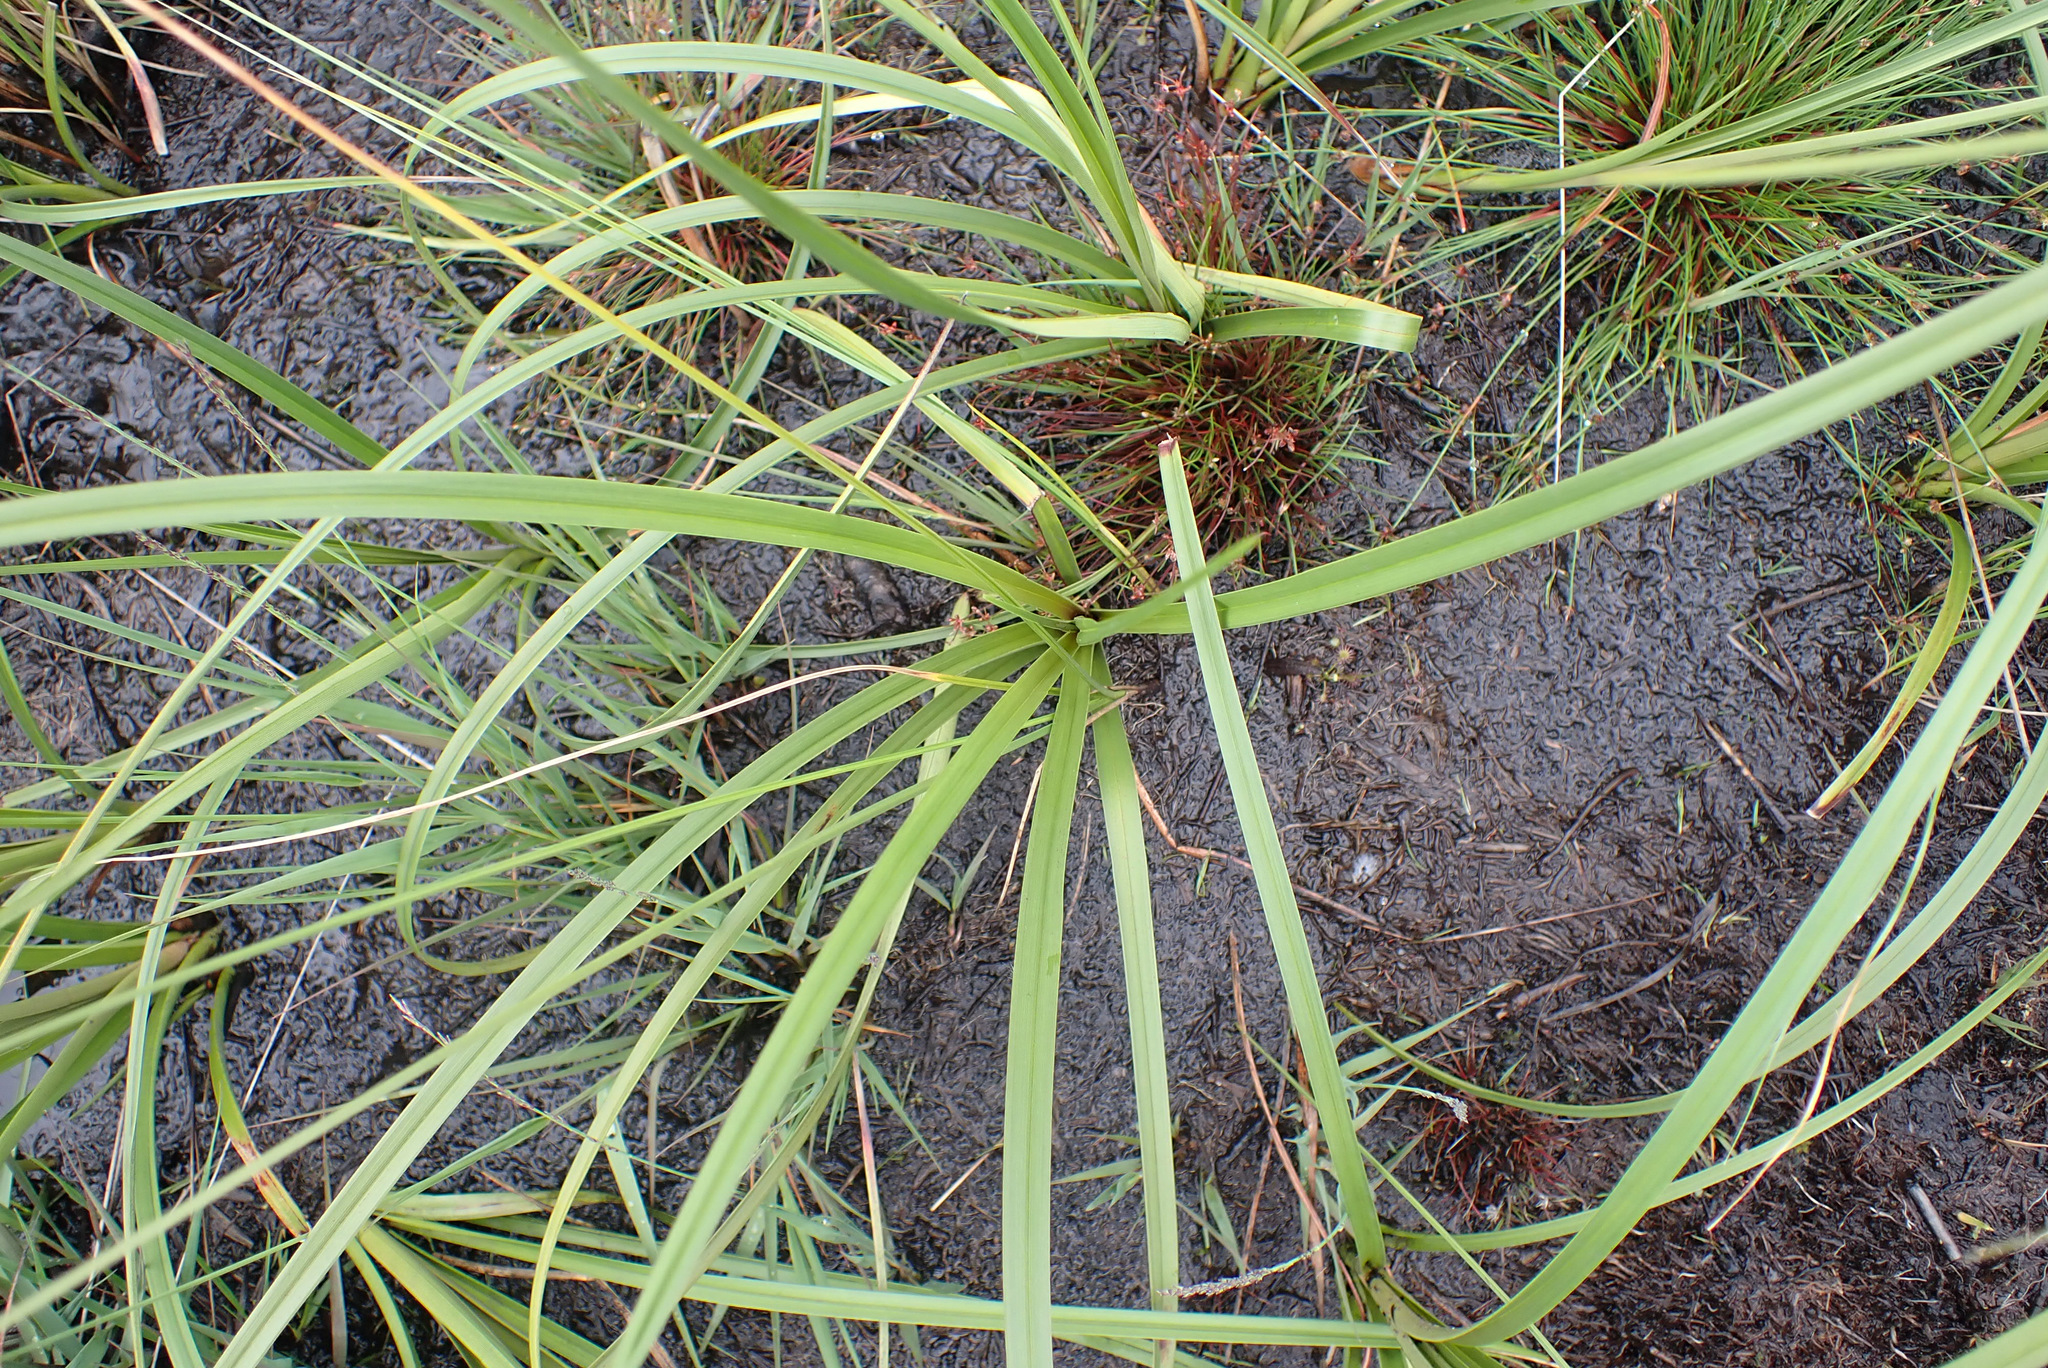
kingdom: Plantae
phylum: Tracheophyta
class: Liliopsida
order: Poales
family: Cyperaceae
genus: Eriophorum
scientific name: Eriophorum angustifolium
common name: Common cottongrass
